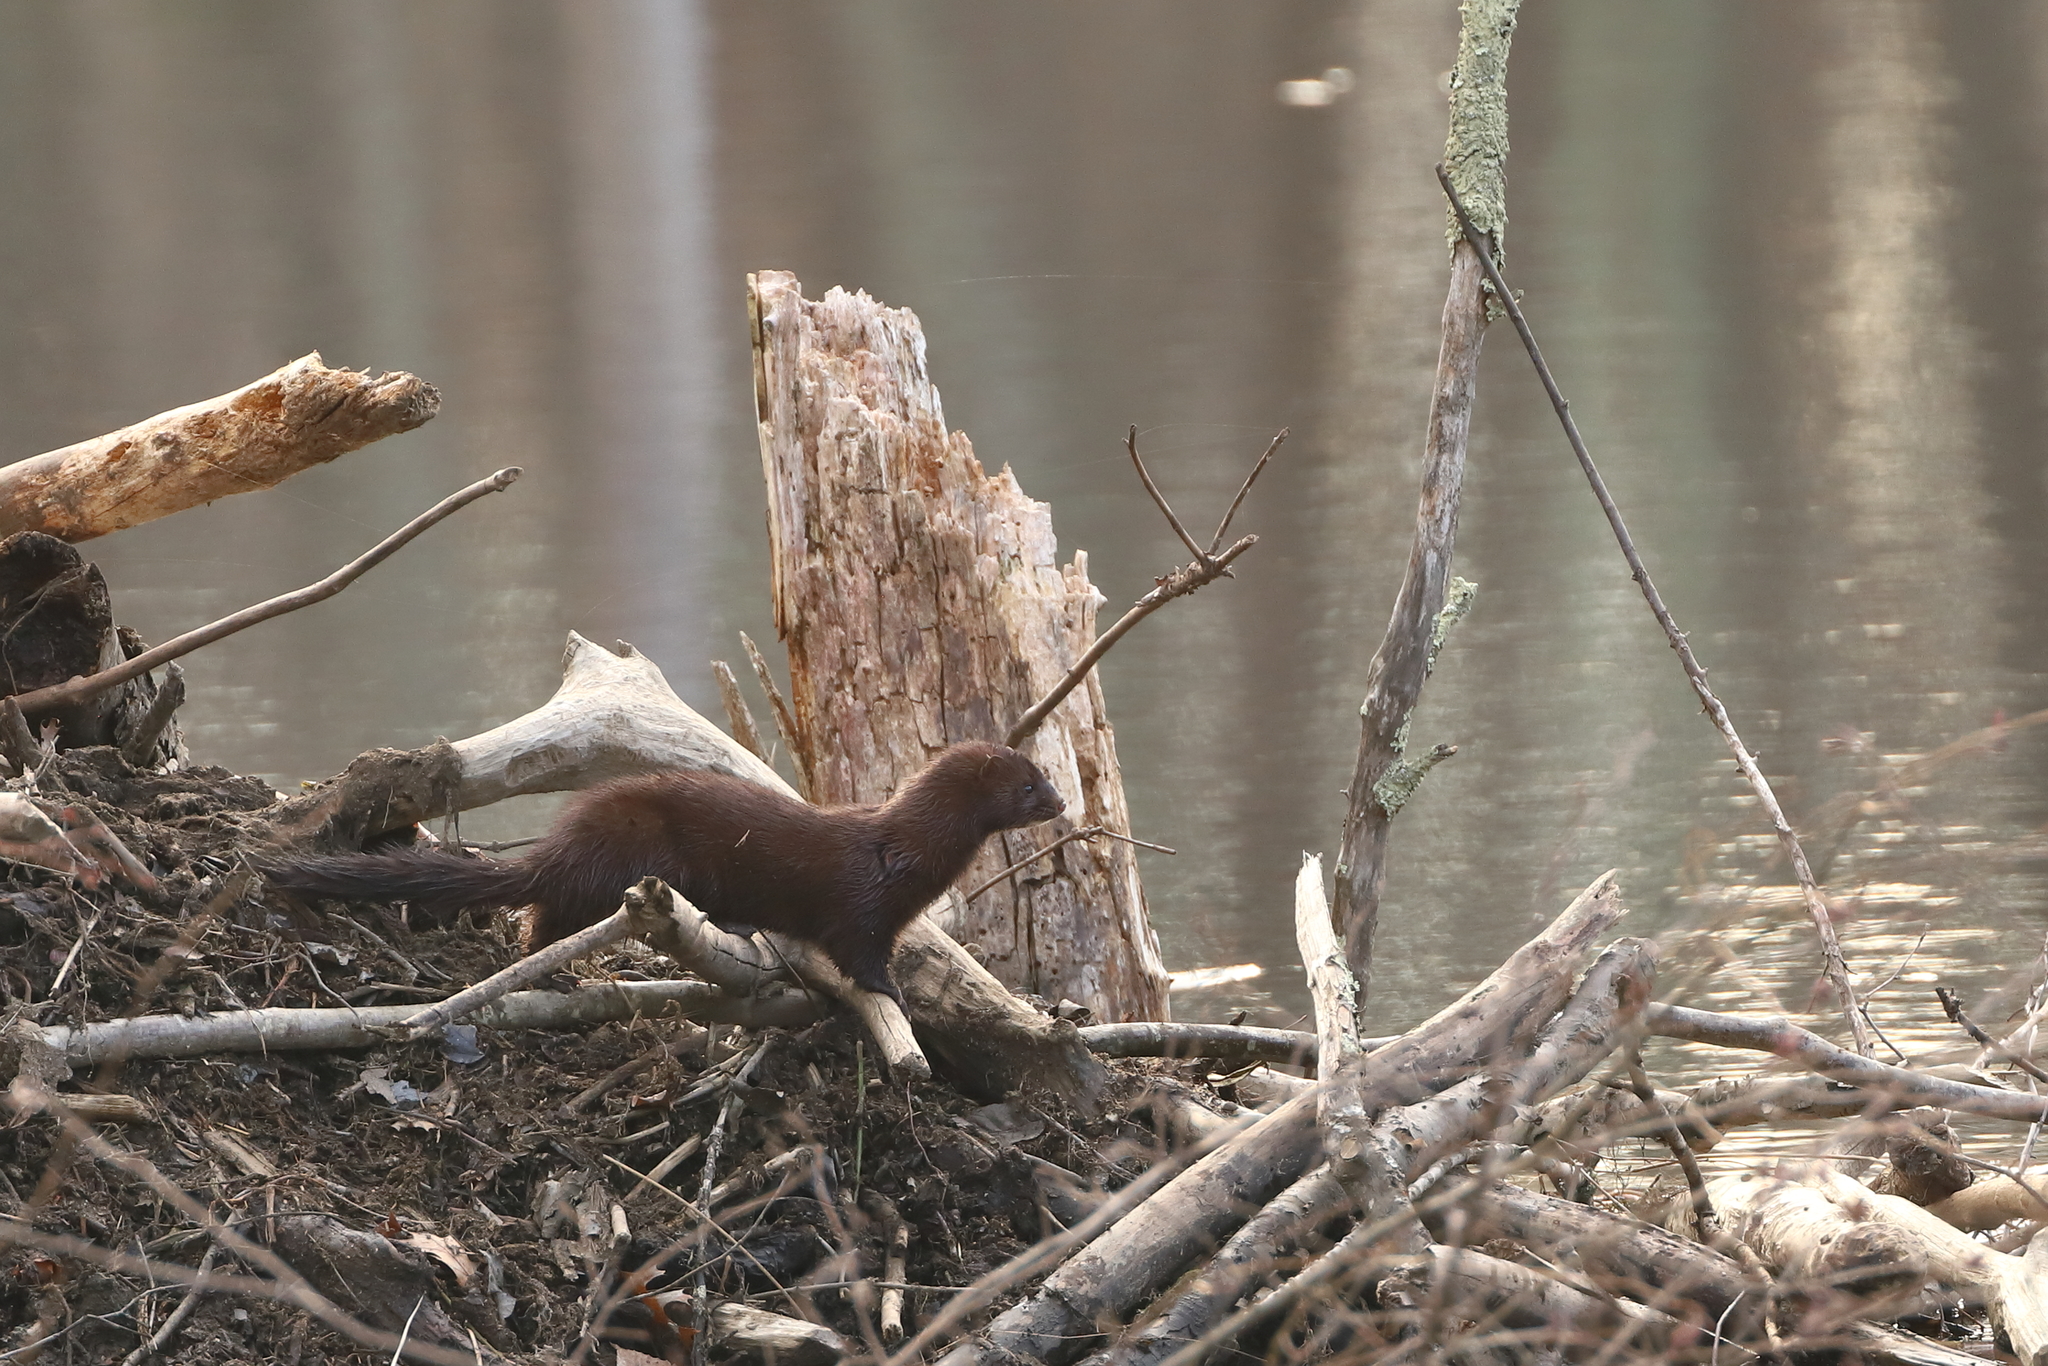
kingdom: Animalia
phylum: Chordata
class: Mammalia
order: Carnivora
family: Mustelidae
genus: Mustela
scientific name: Mustela
